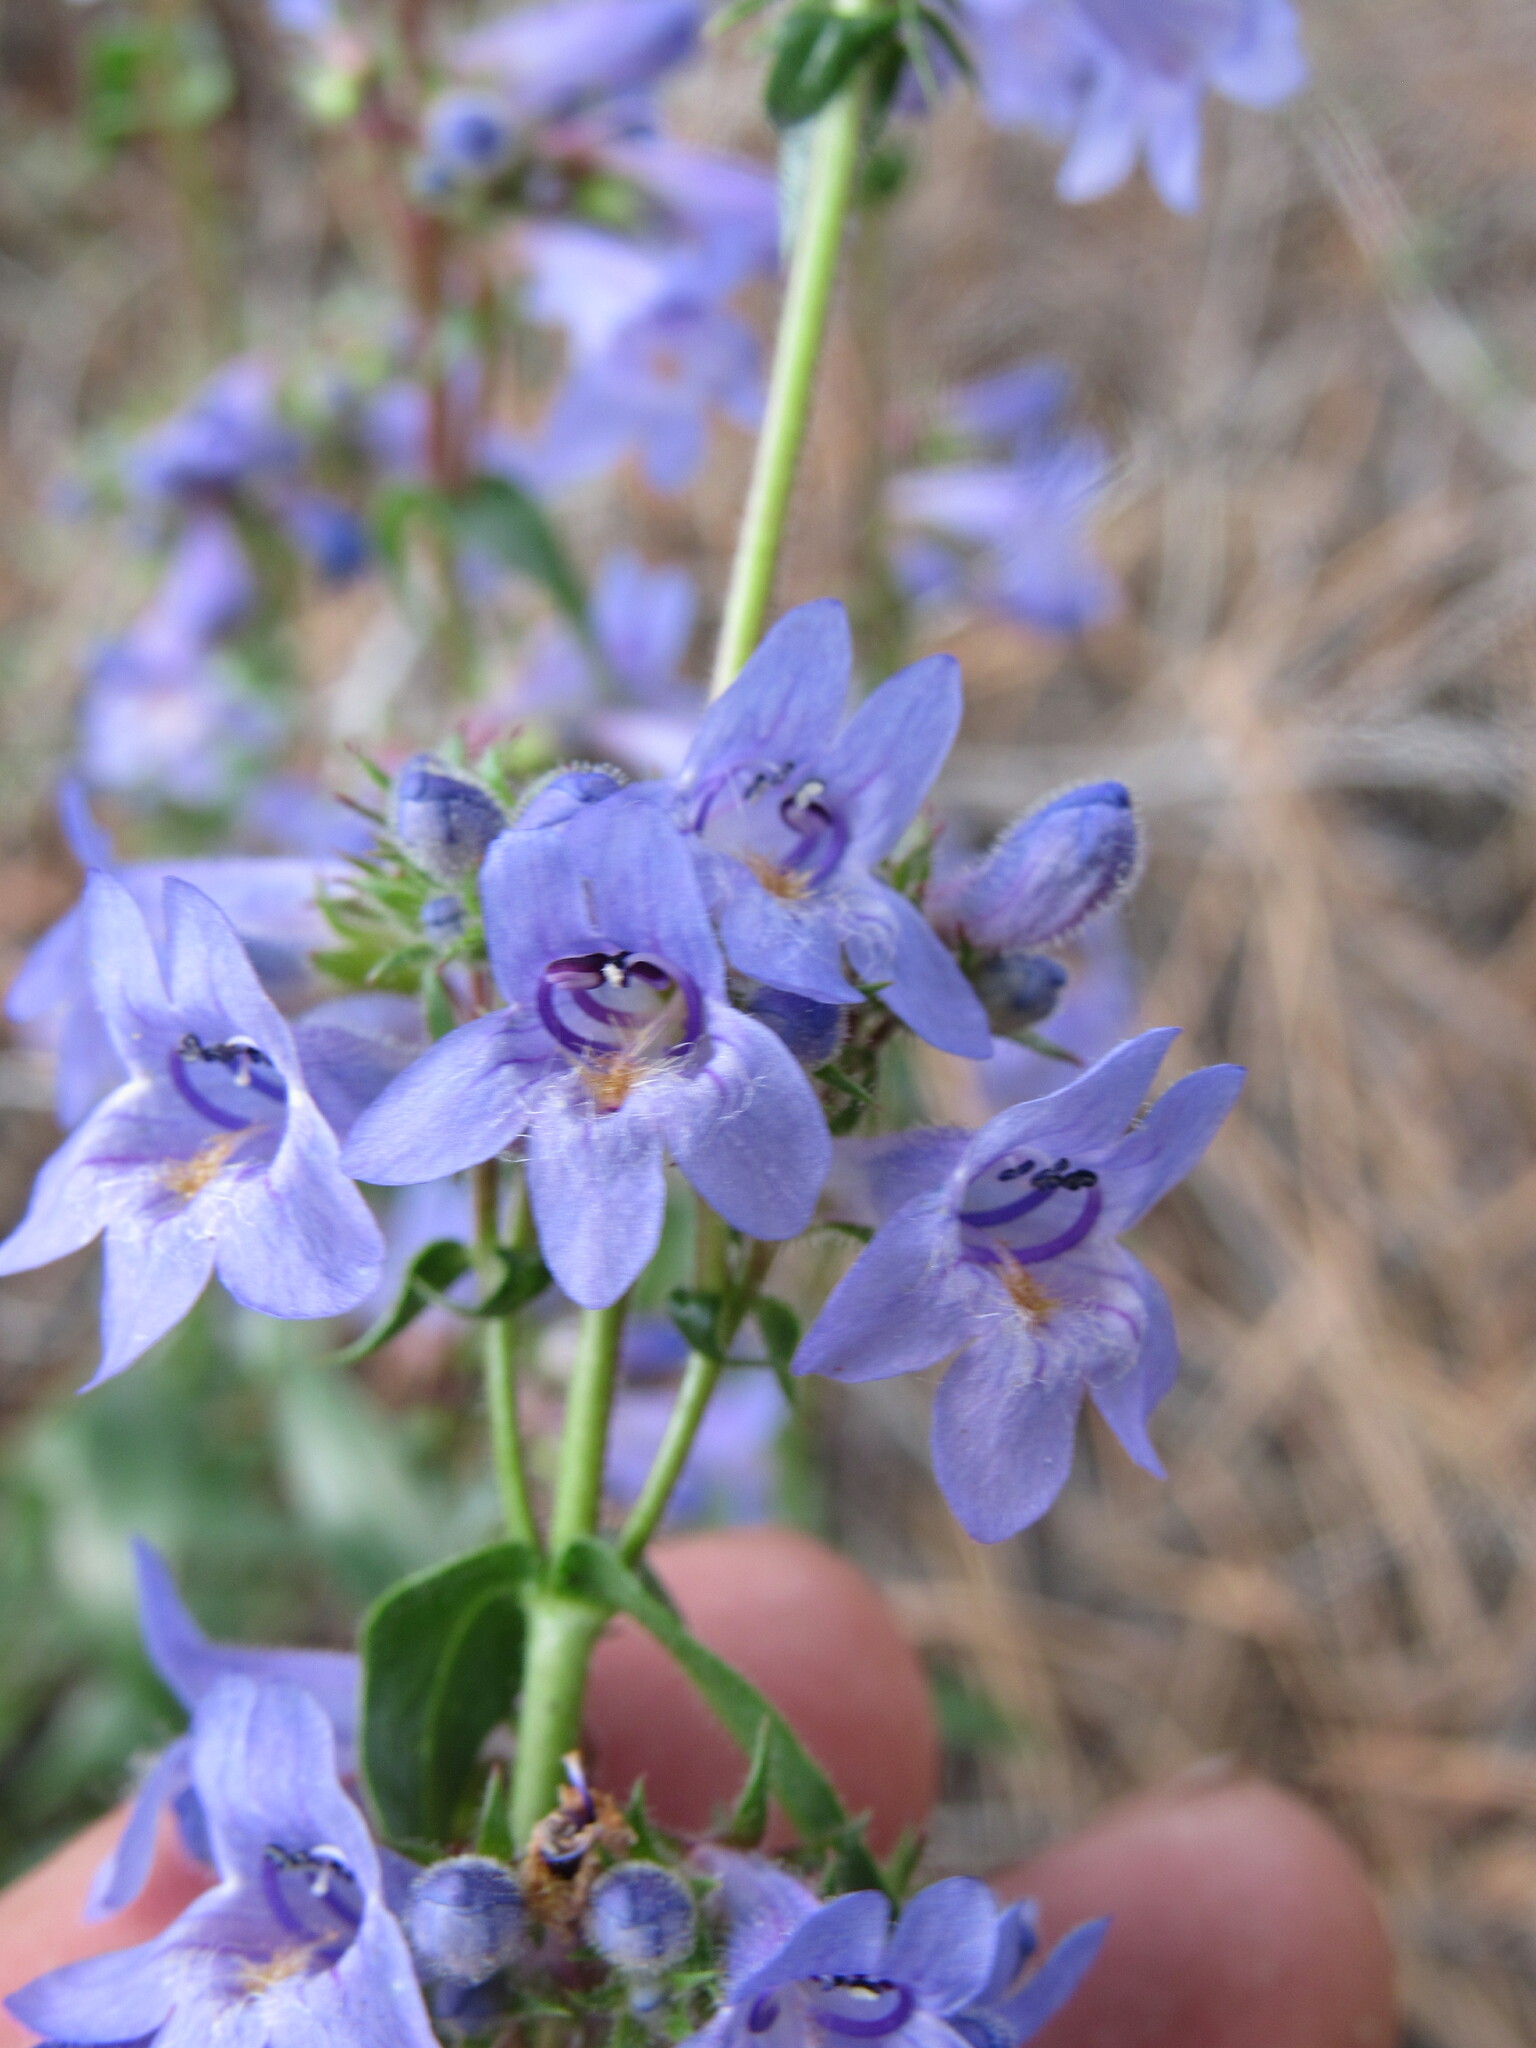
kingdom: Plantae
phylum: Tracheophyta
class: Magnoliopsida
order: Lamiales
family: Plantaginaceae
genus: Penstemon
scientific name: Penstemon virens
